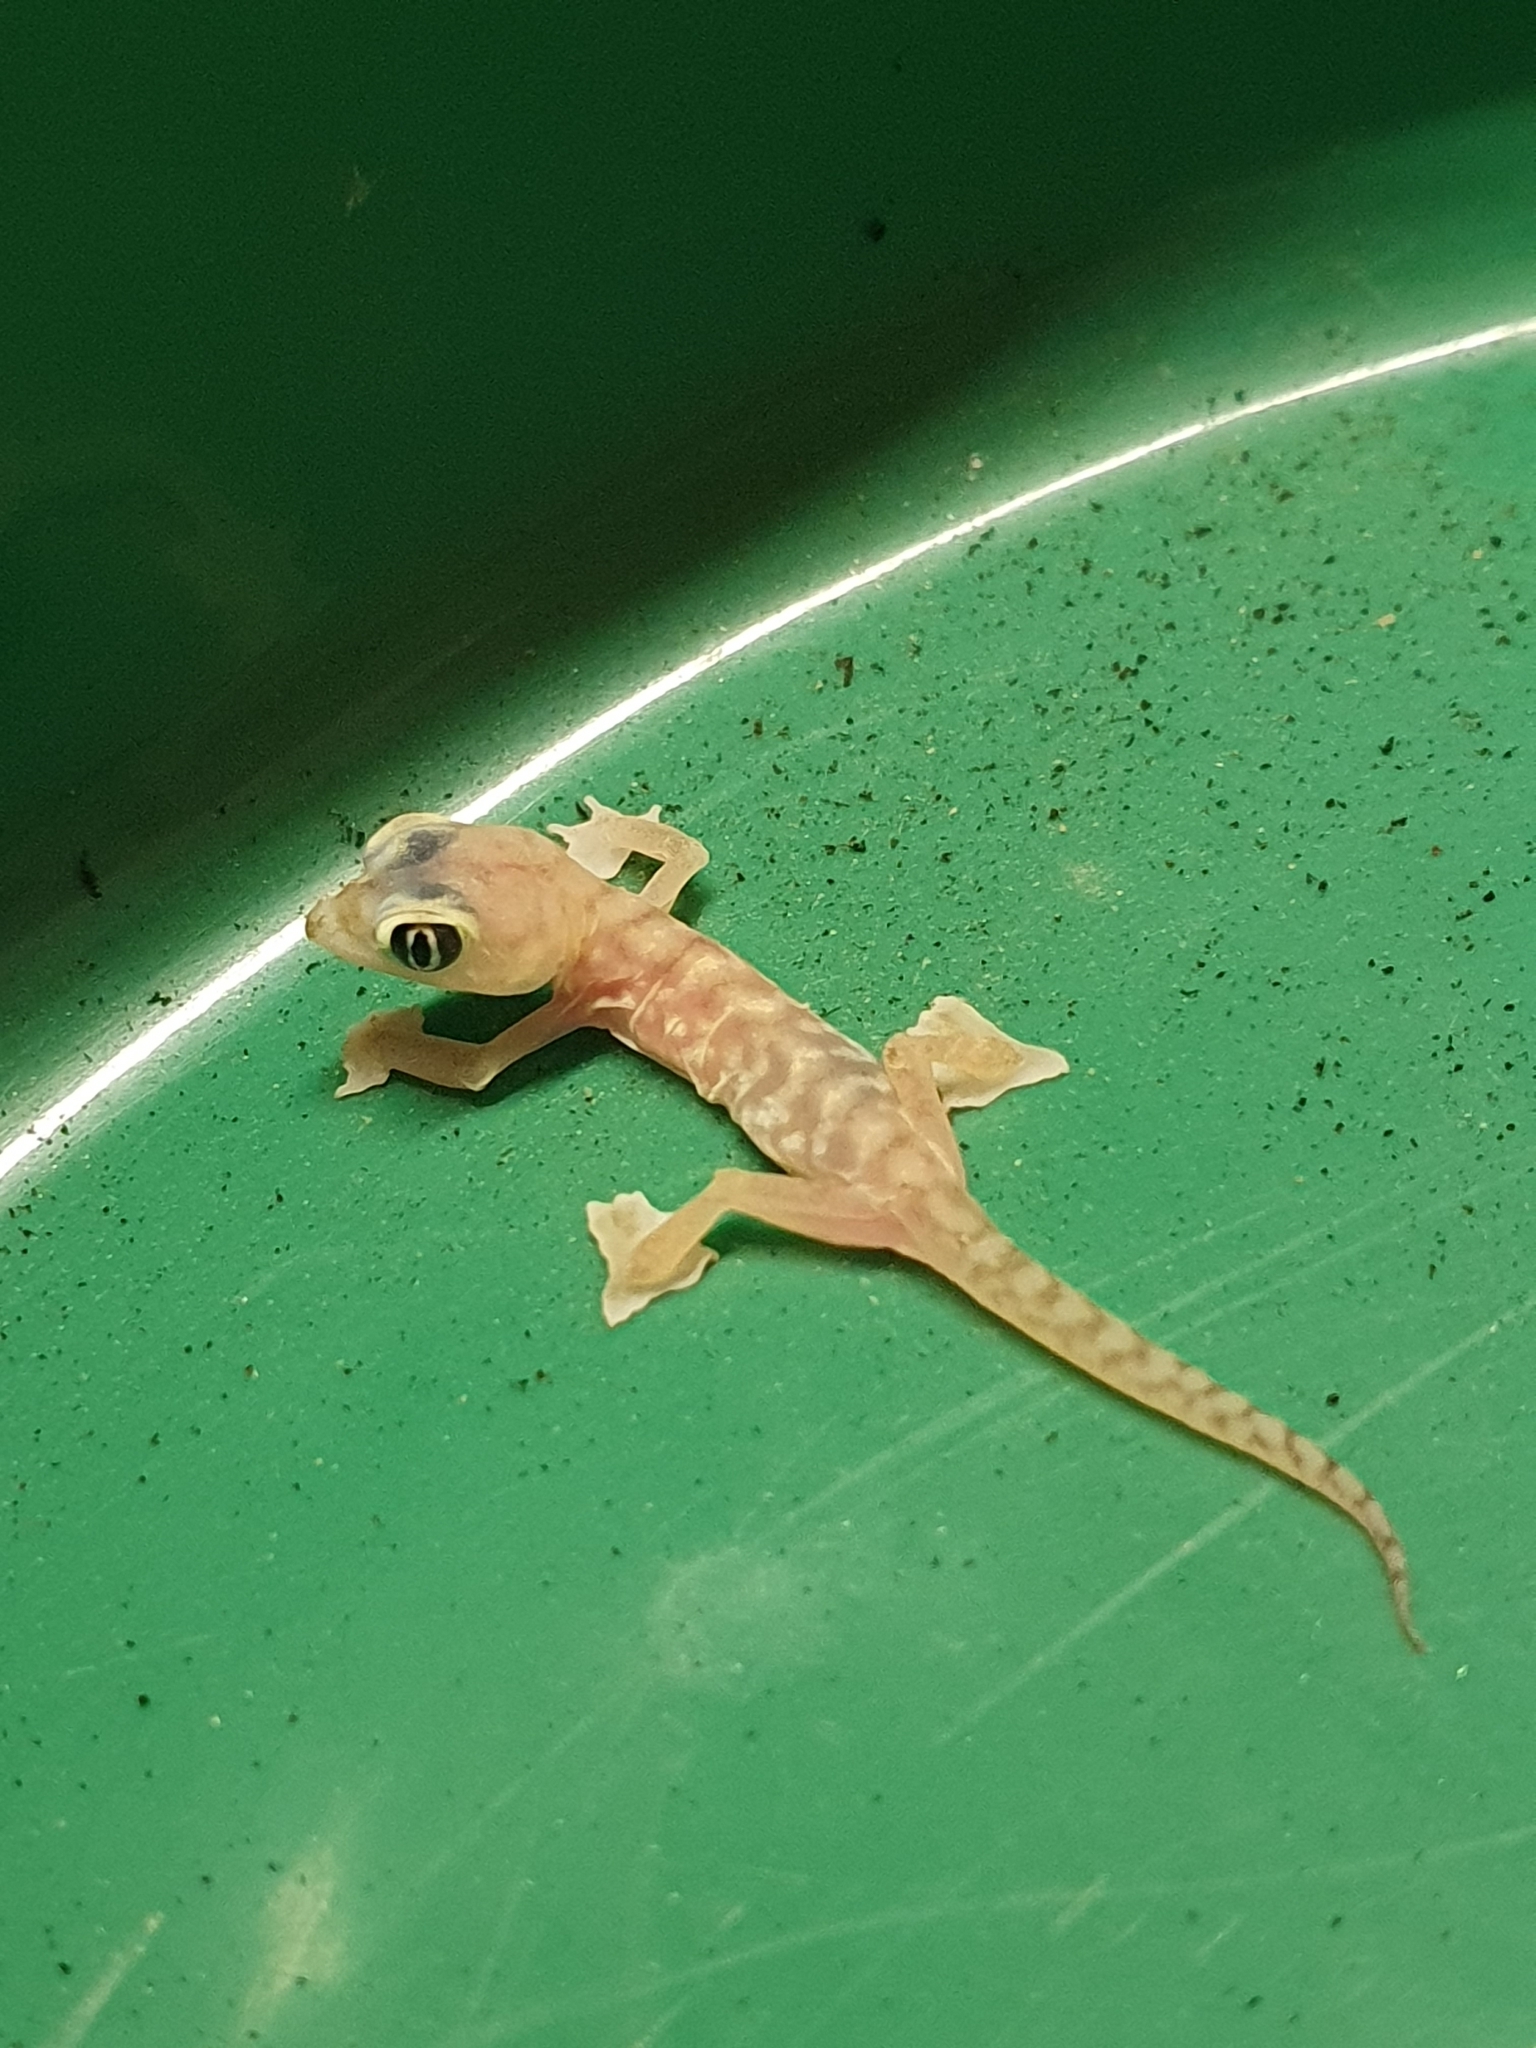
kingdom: Animalia
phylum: Chordata
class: Squamata
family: Gekkonidae
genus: Pachydactylus
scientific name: Pachydactylus rangei
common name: Namib sand gecko
